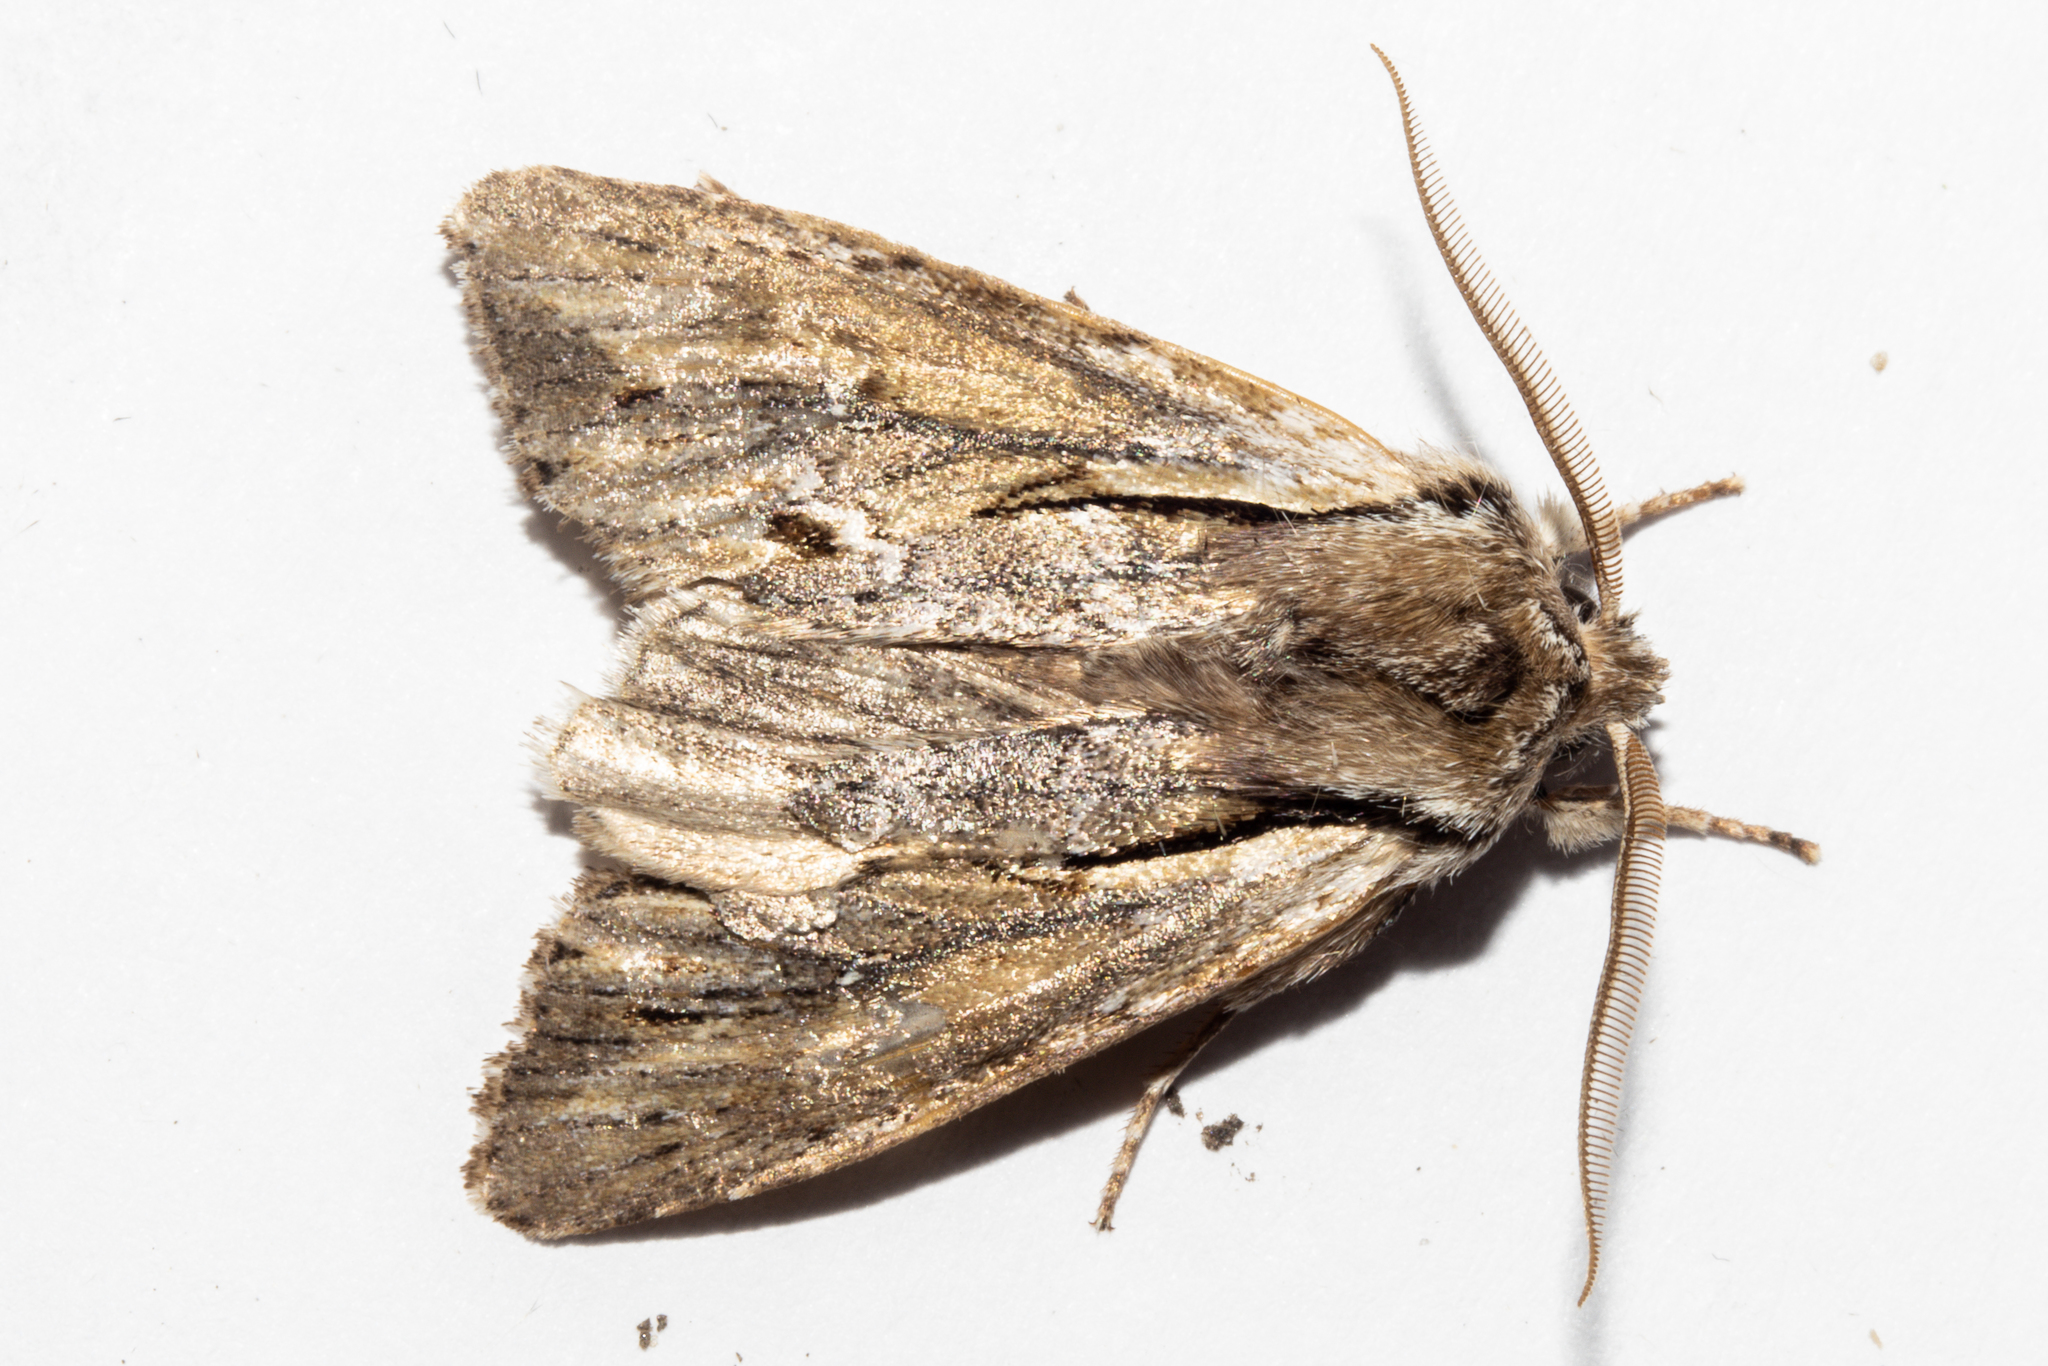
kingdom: Animalia
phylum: Arthropoda
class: Insecta
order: Lepidoptera
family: Noctuidae
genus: Ichneutica
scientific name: Ichneutica
